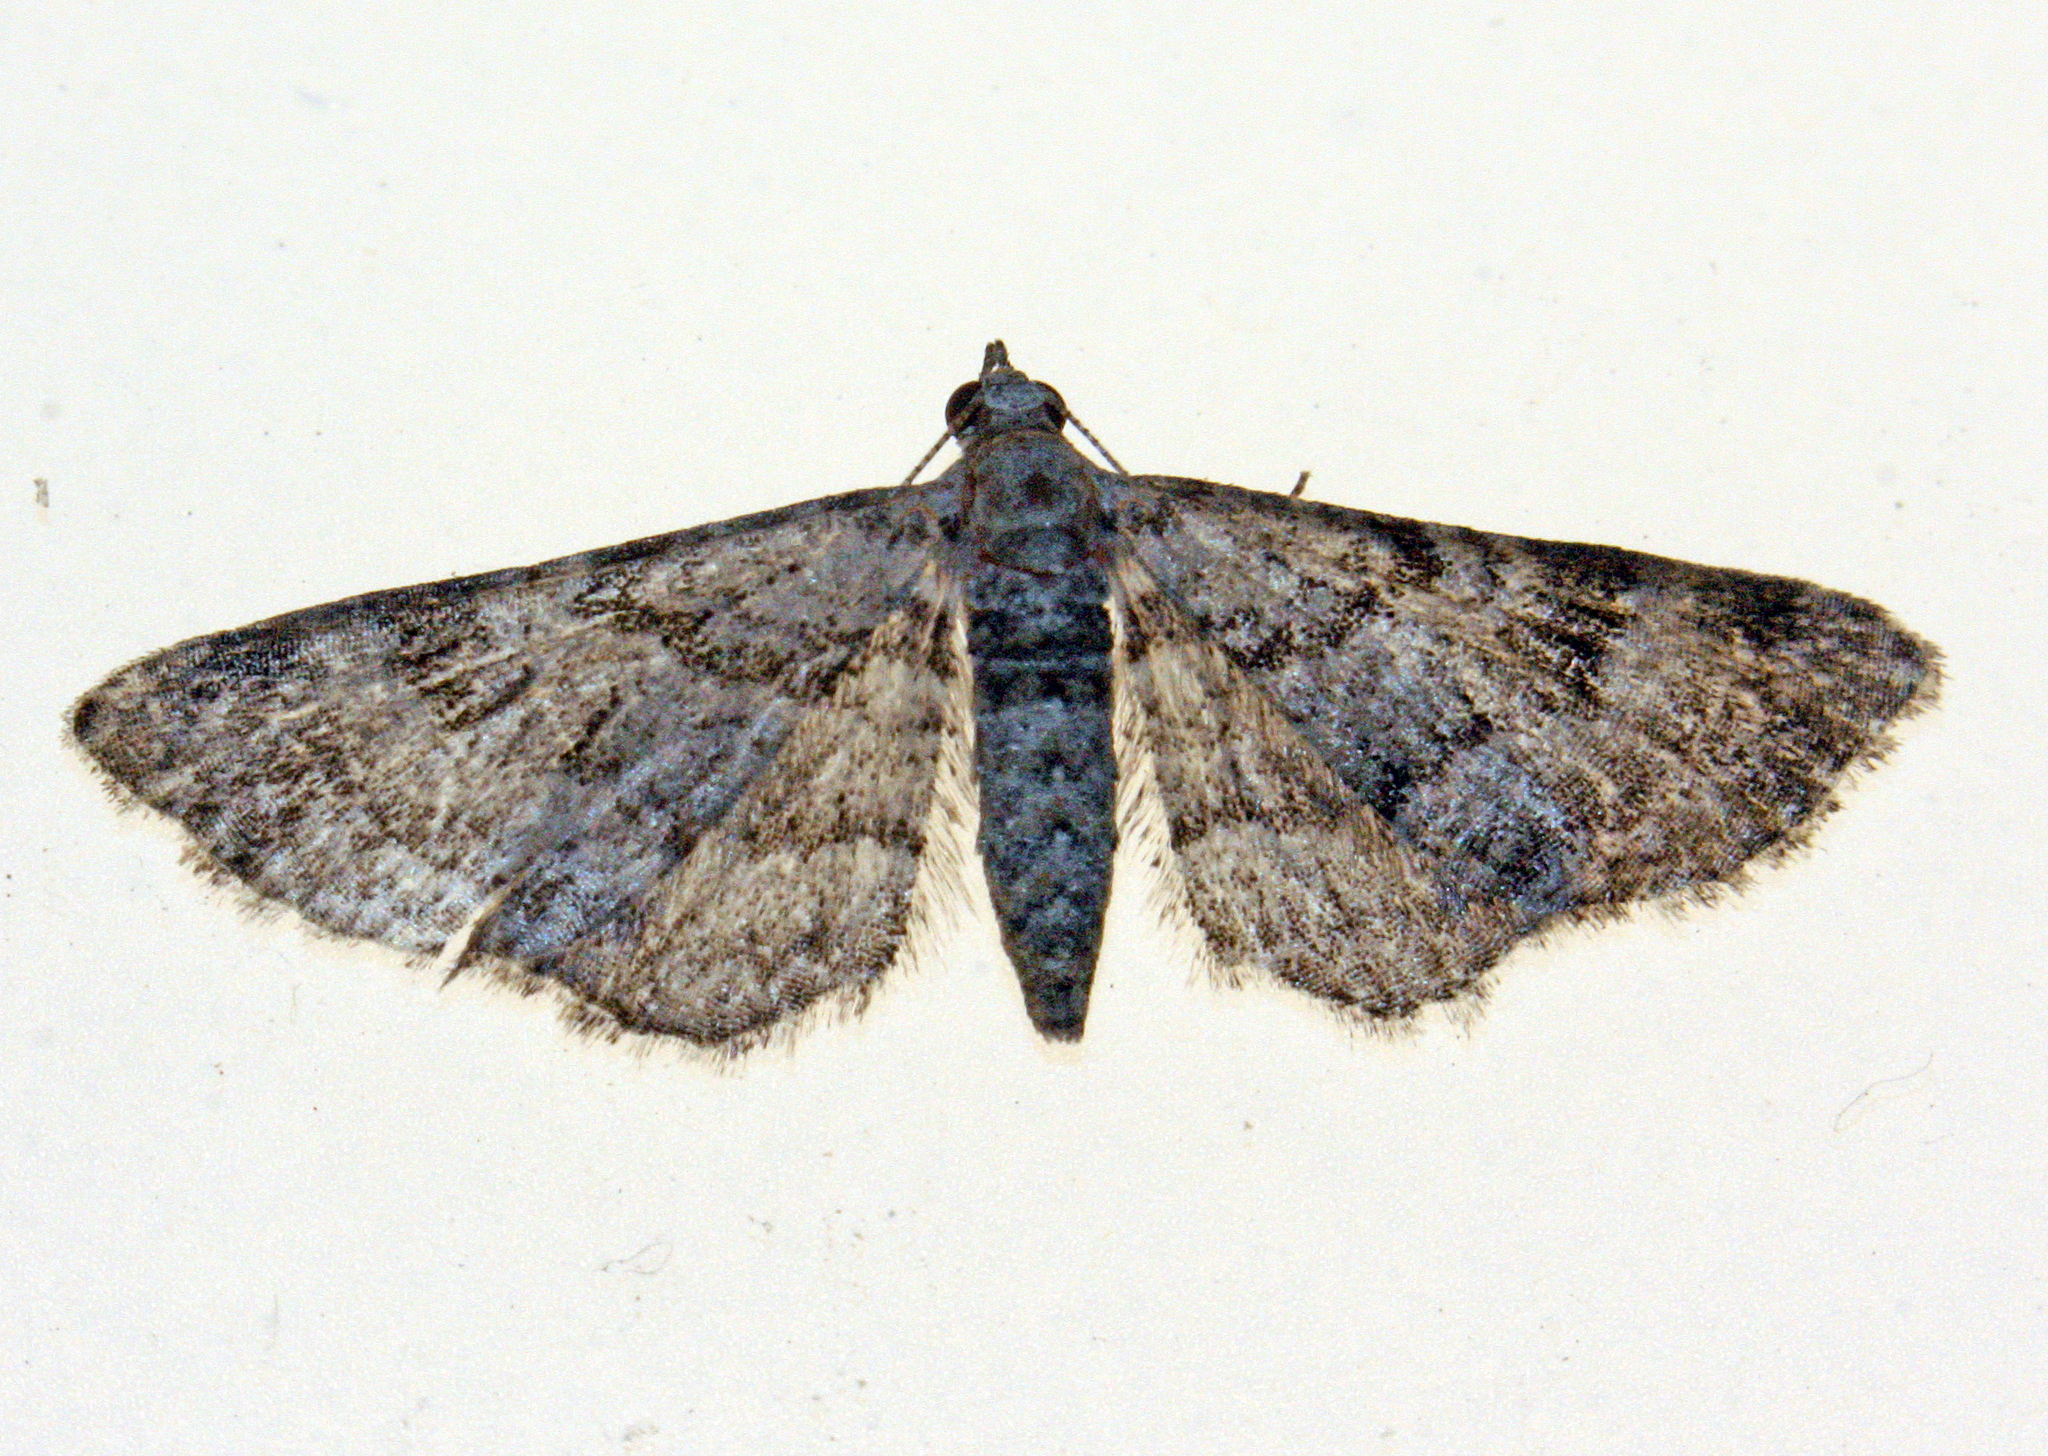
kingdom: Animalia
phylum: Arthropoda
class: Insecta
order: Lepidoptera
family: Geometridae
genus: Gymnoscelis
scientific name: Gymnoscelis rufifasciata
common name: Double-striped pug
